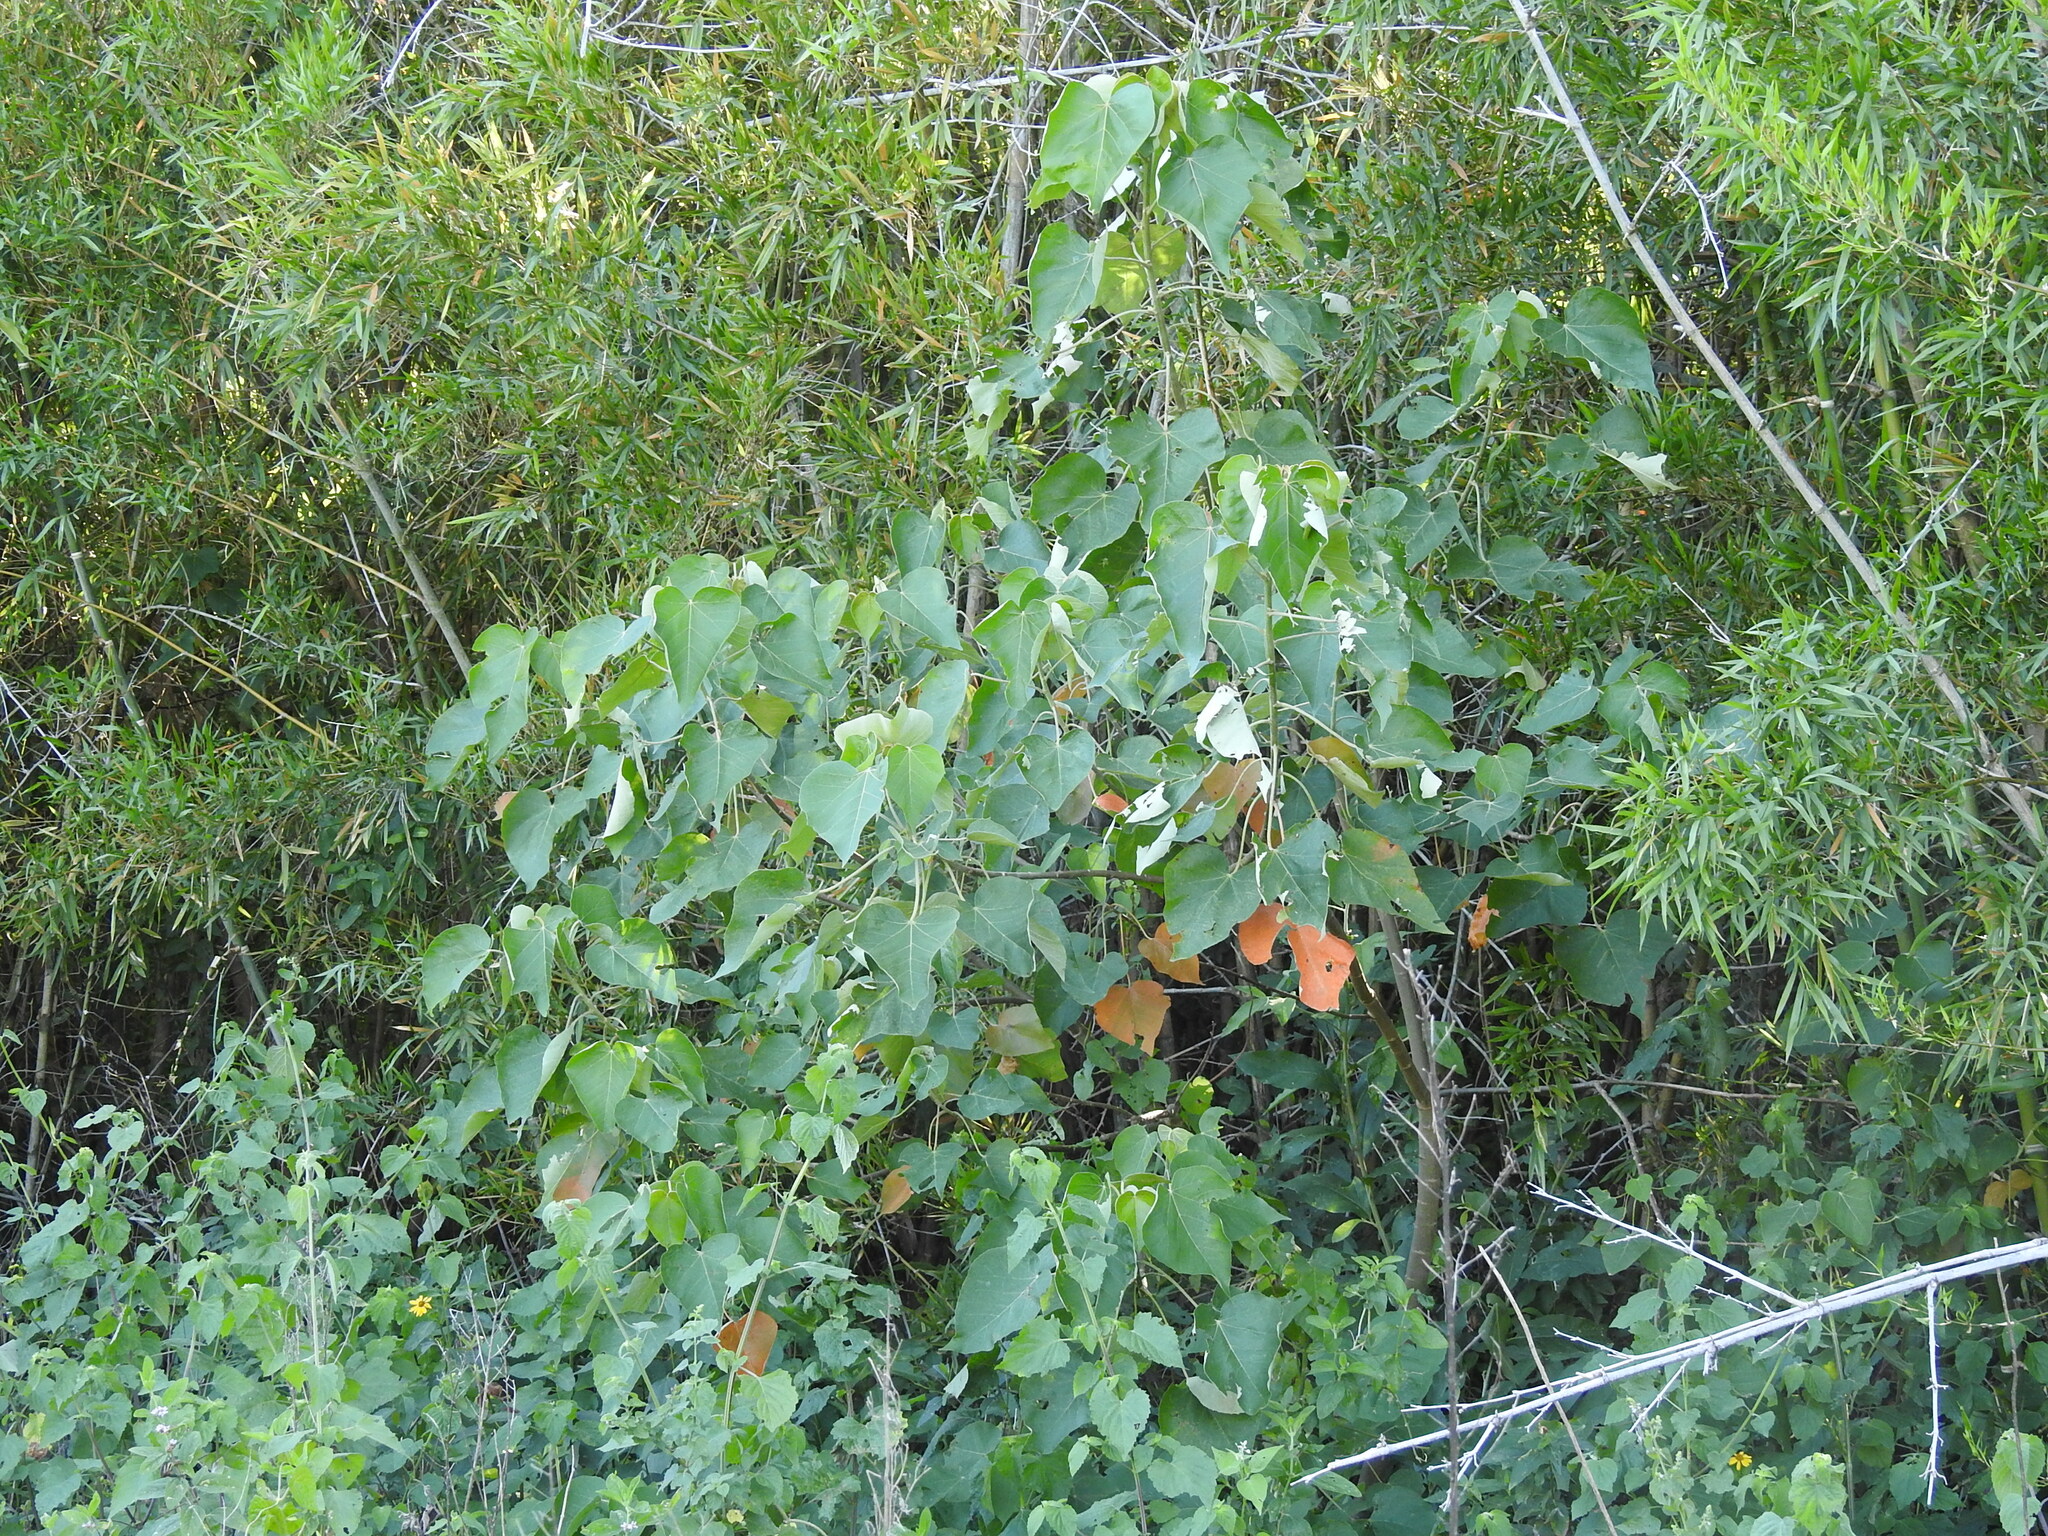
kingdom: Plantae
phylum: Tracheophyta
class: Magnoliopsida
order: Malpighiales
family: Euphorbiaceae
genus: Croton
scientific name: Croton urucurana
